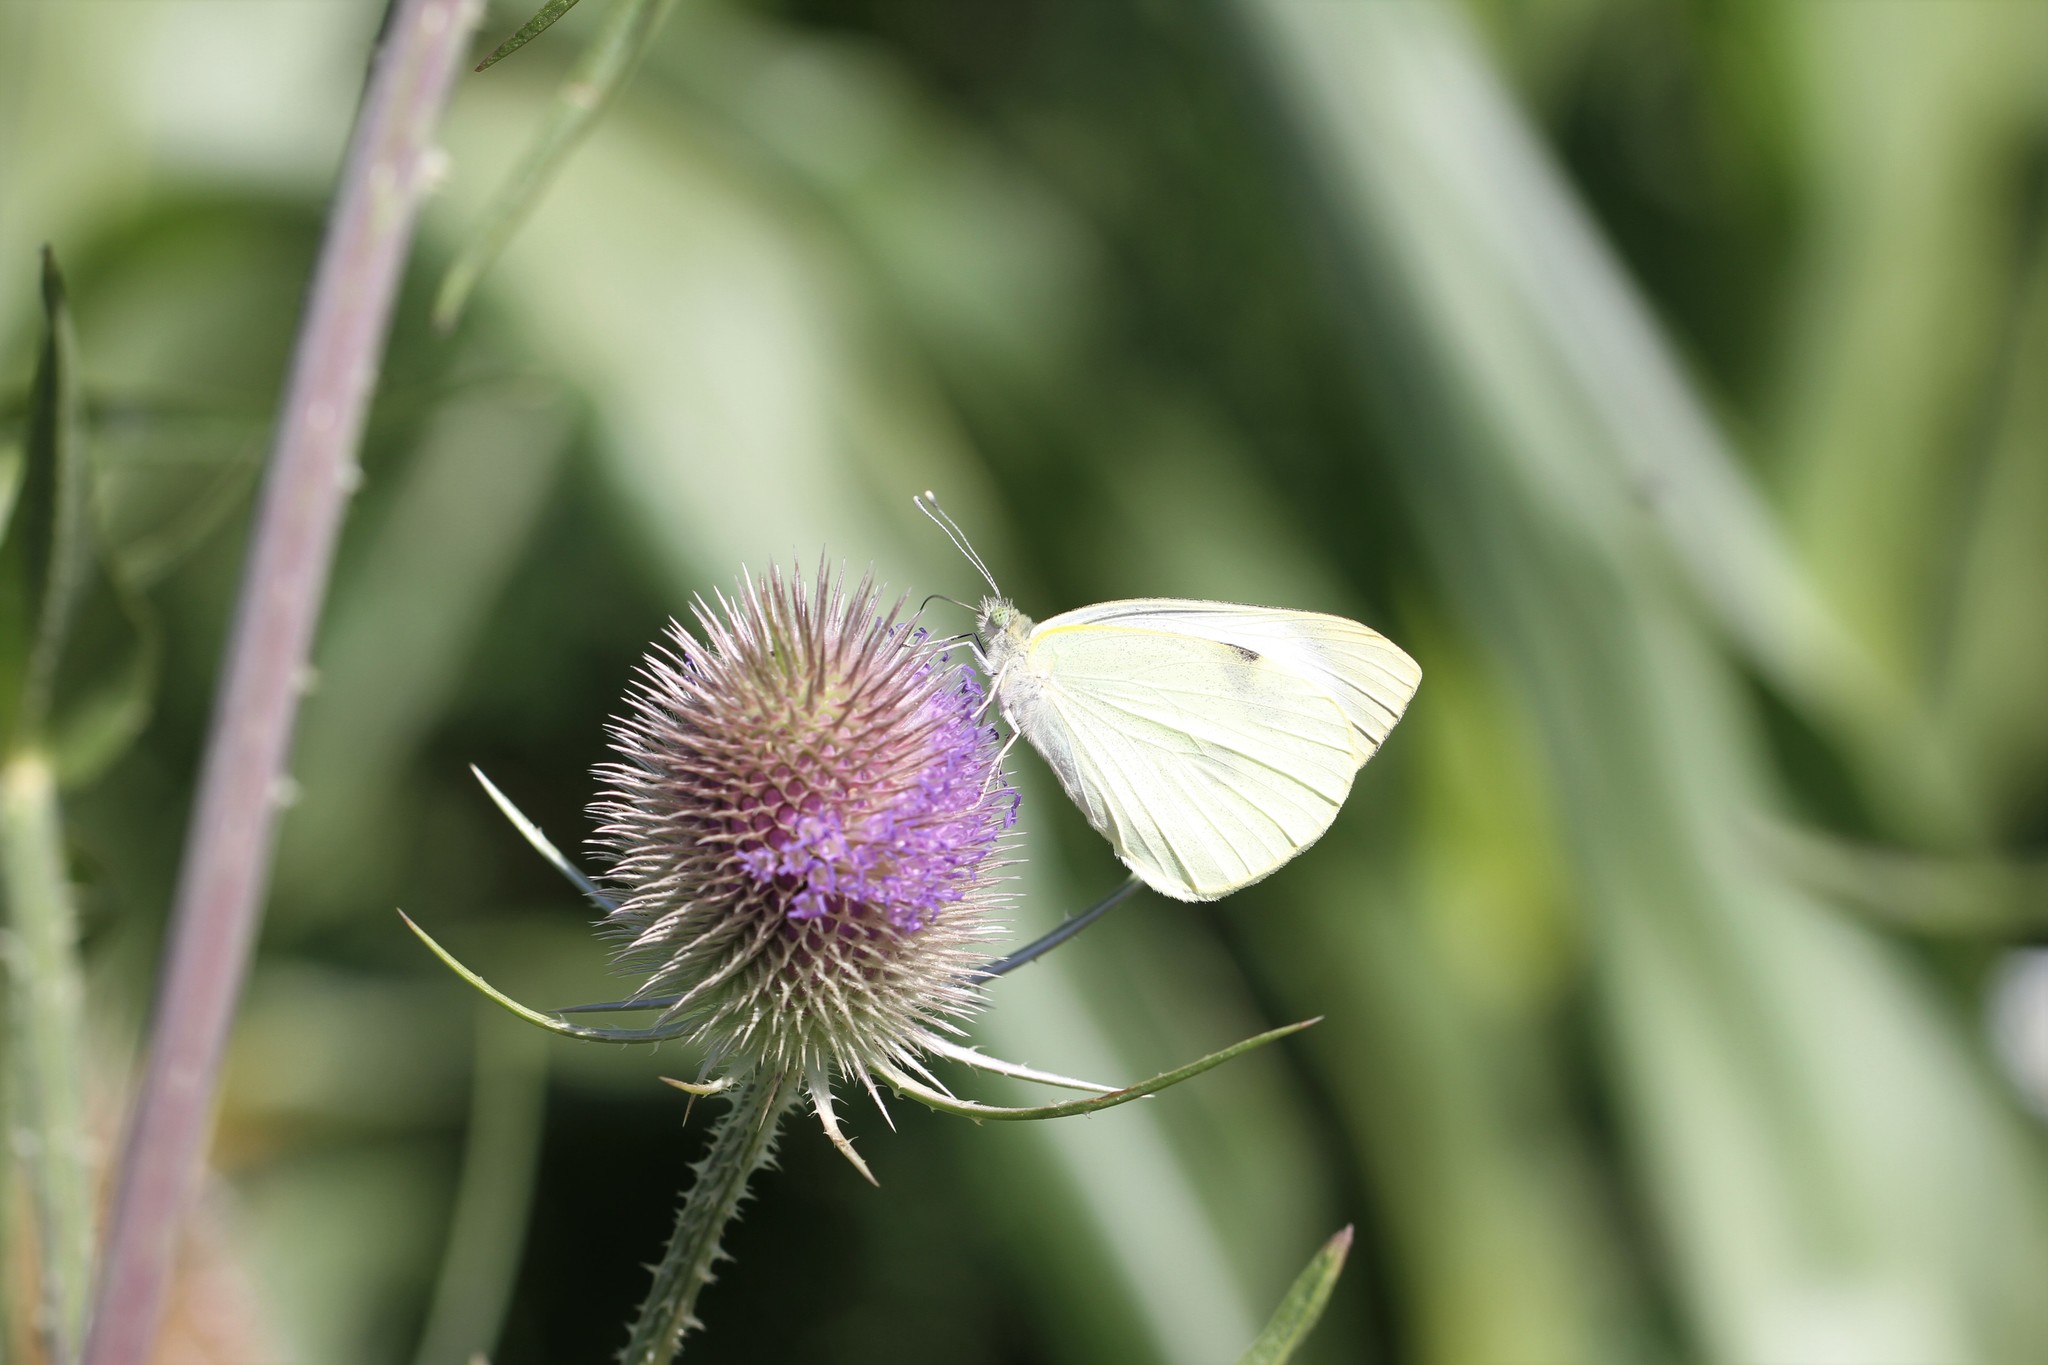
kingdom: Animalia
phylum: Arthropoda
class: Insecta
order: Lepidoptera
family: Pieridae
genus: Pieris
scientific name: Pieris rapae
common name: Small white
